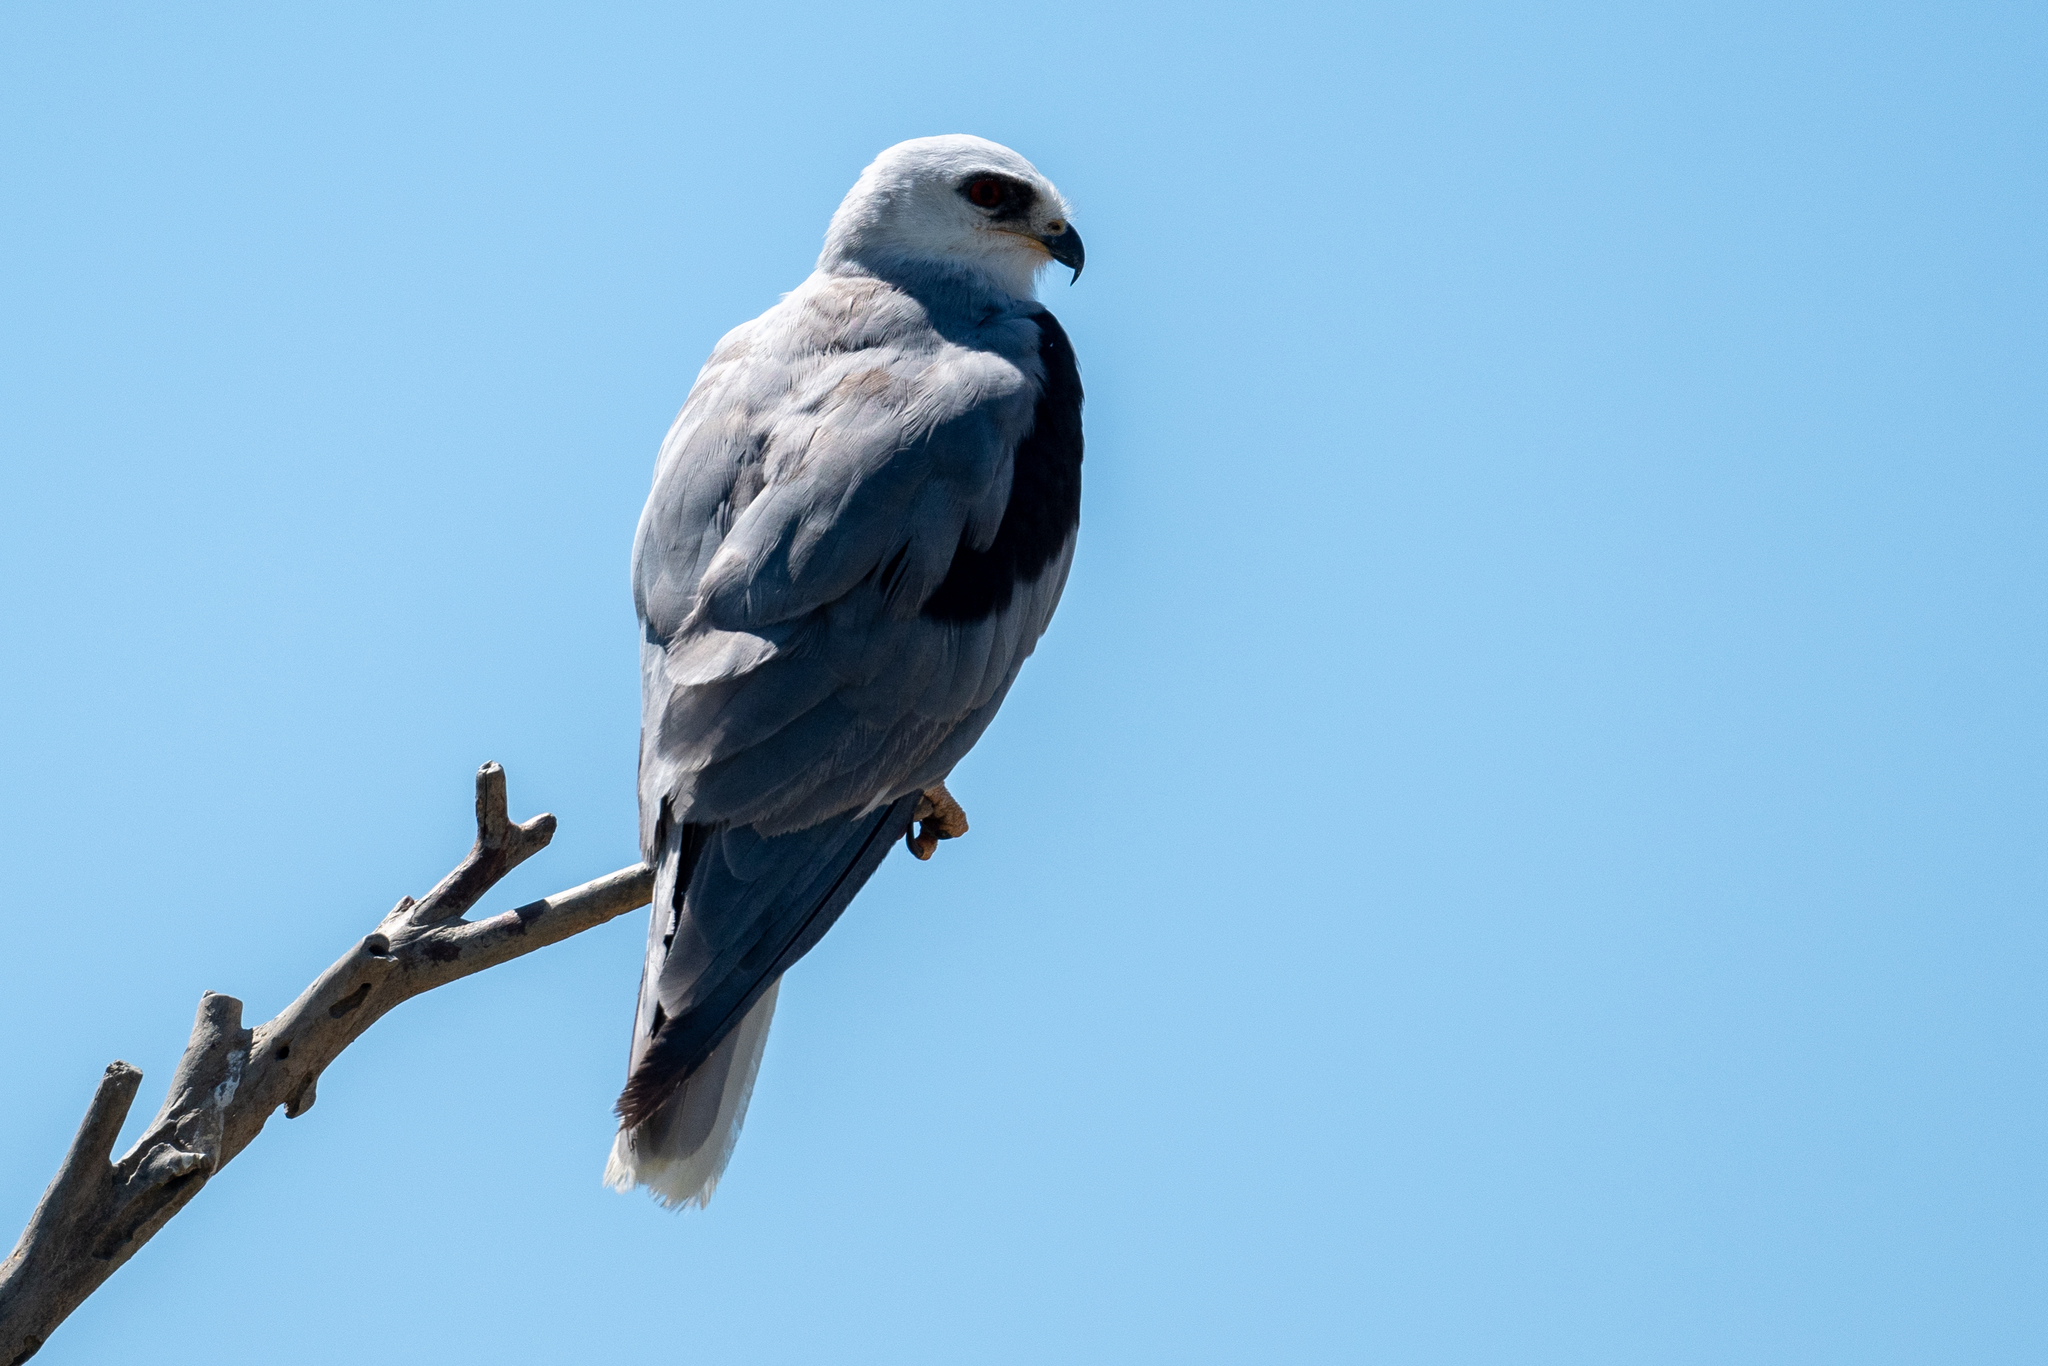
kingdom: Animalia
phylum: Chordata
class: Aves
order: Accipitriformes
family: Accipitridae
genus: Elanus
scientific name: Elanus leucurus
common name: White-tailed kite
